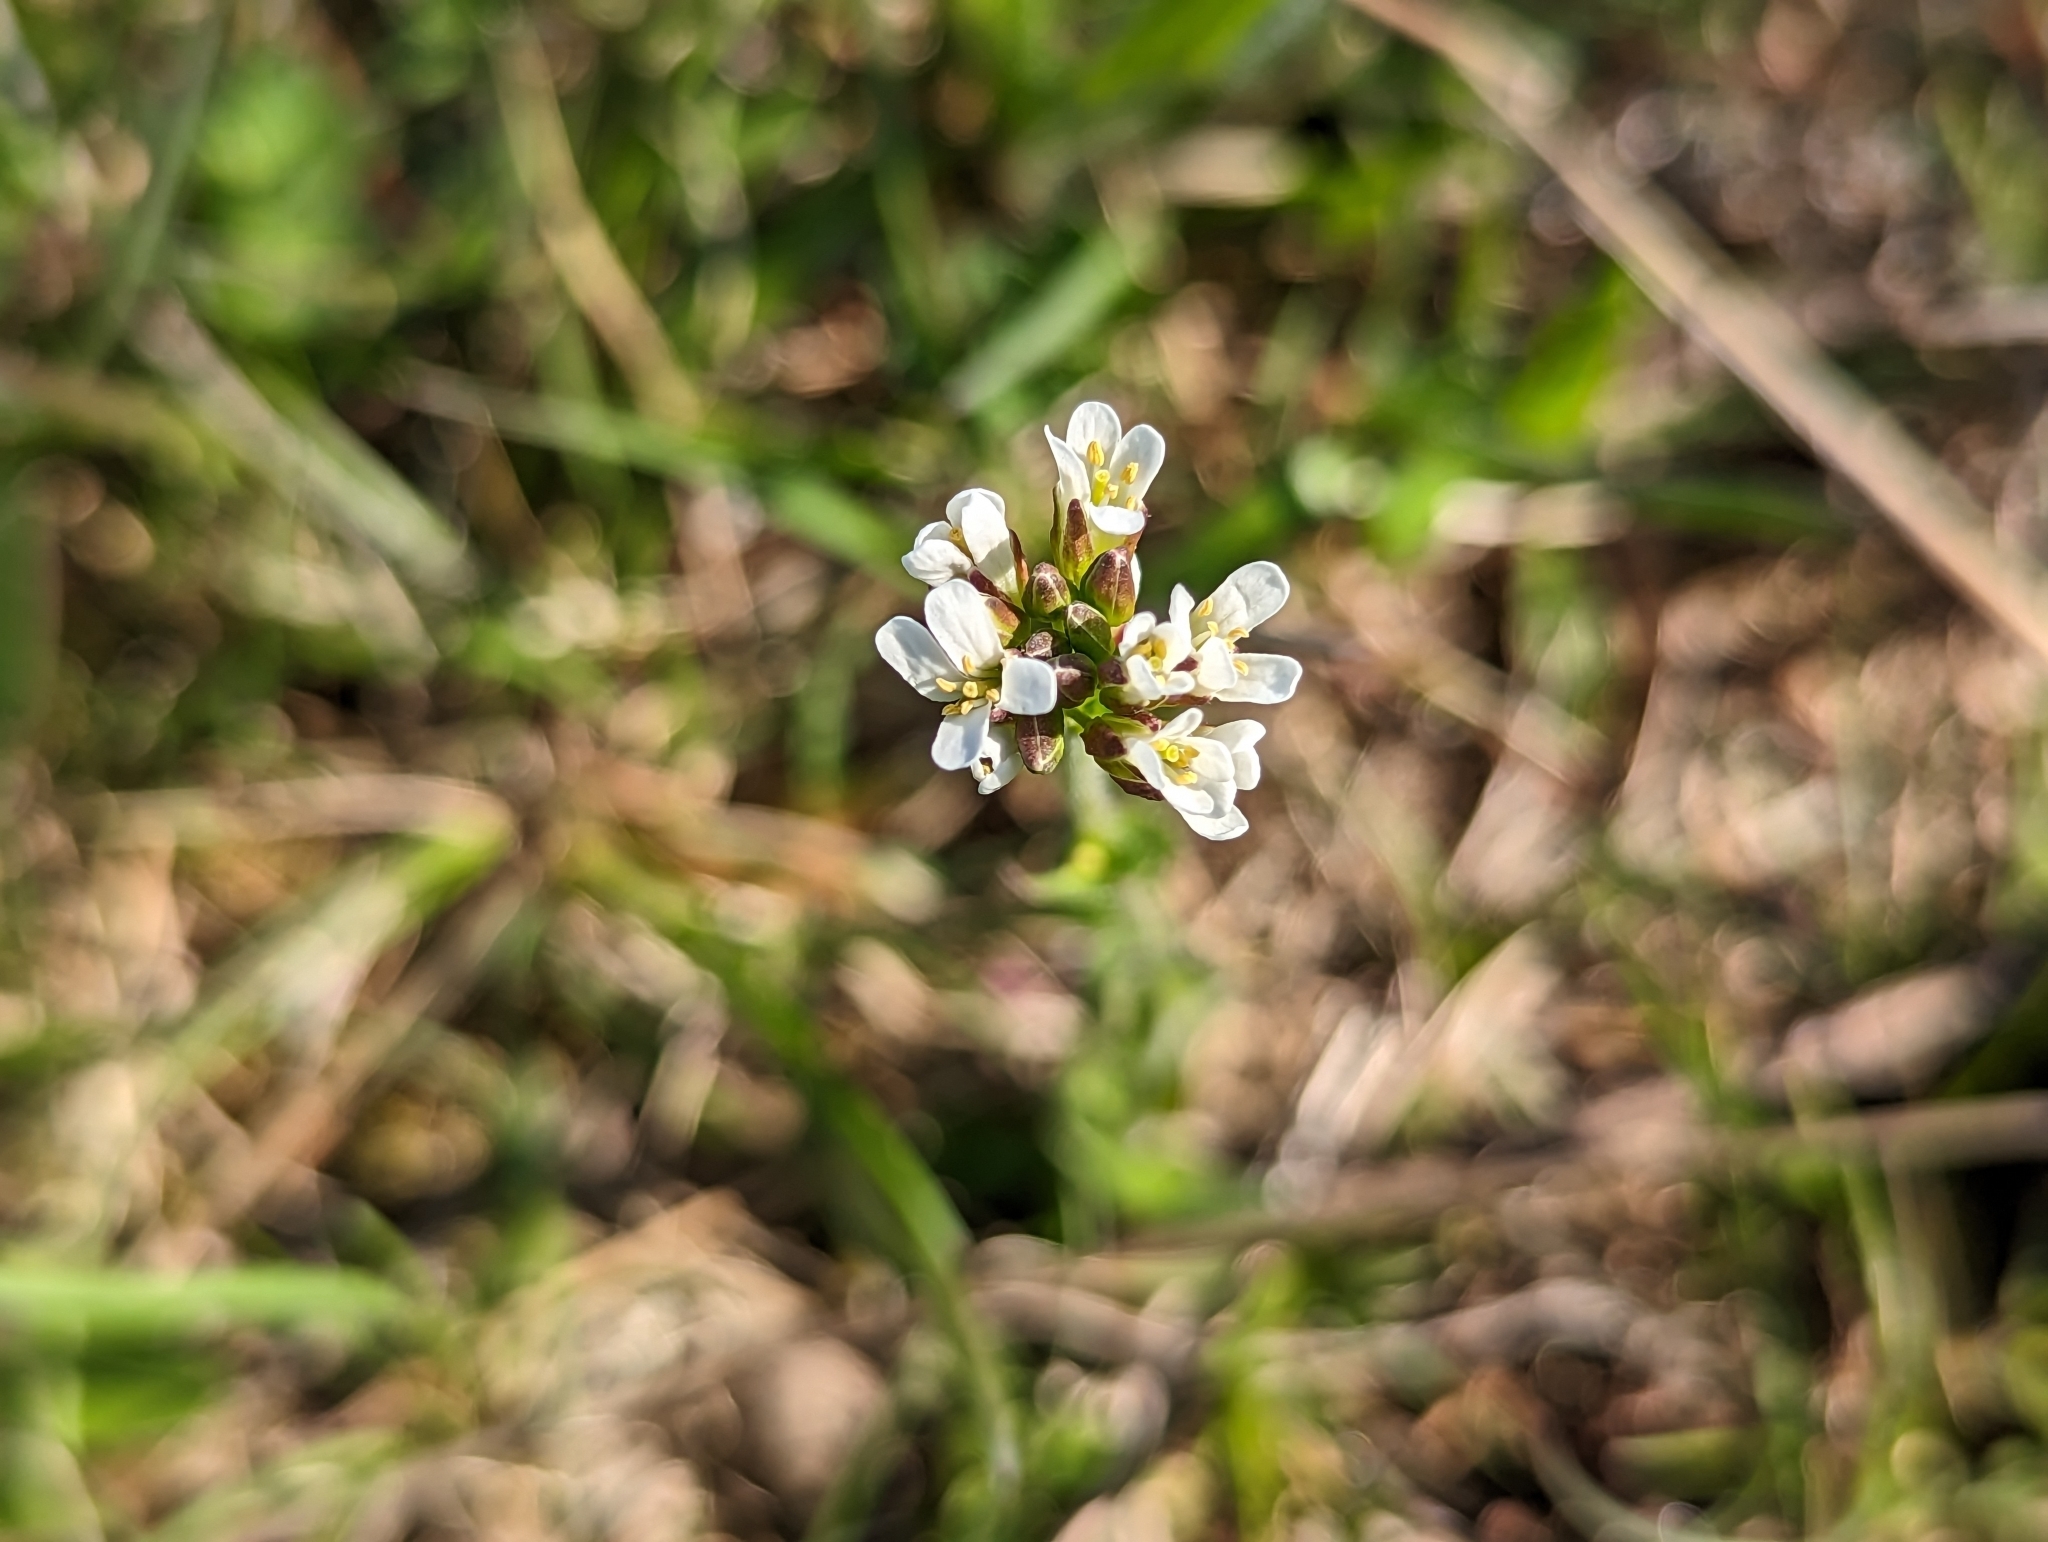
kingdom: Plantae
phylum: Tracheophyta
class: Magnoliopsida
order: Brassicales
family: Brassicaceae
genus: Arabis
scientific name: Arabis hirsuta
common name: Hairy rock-cress
